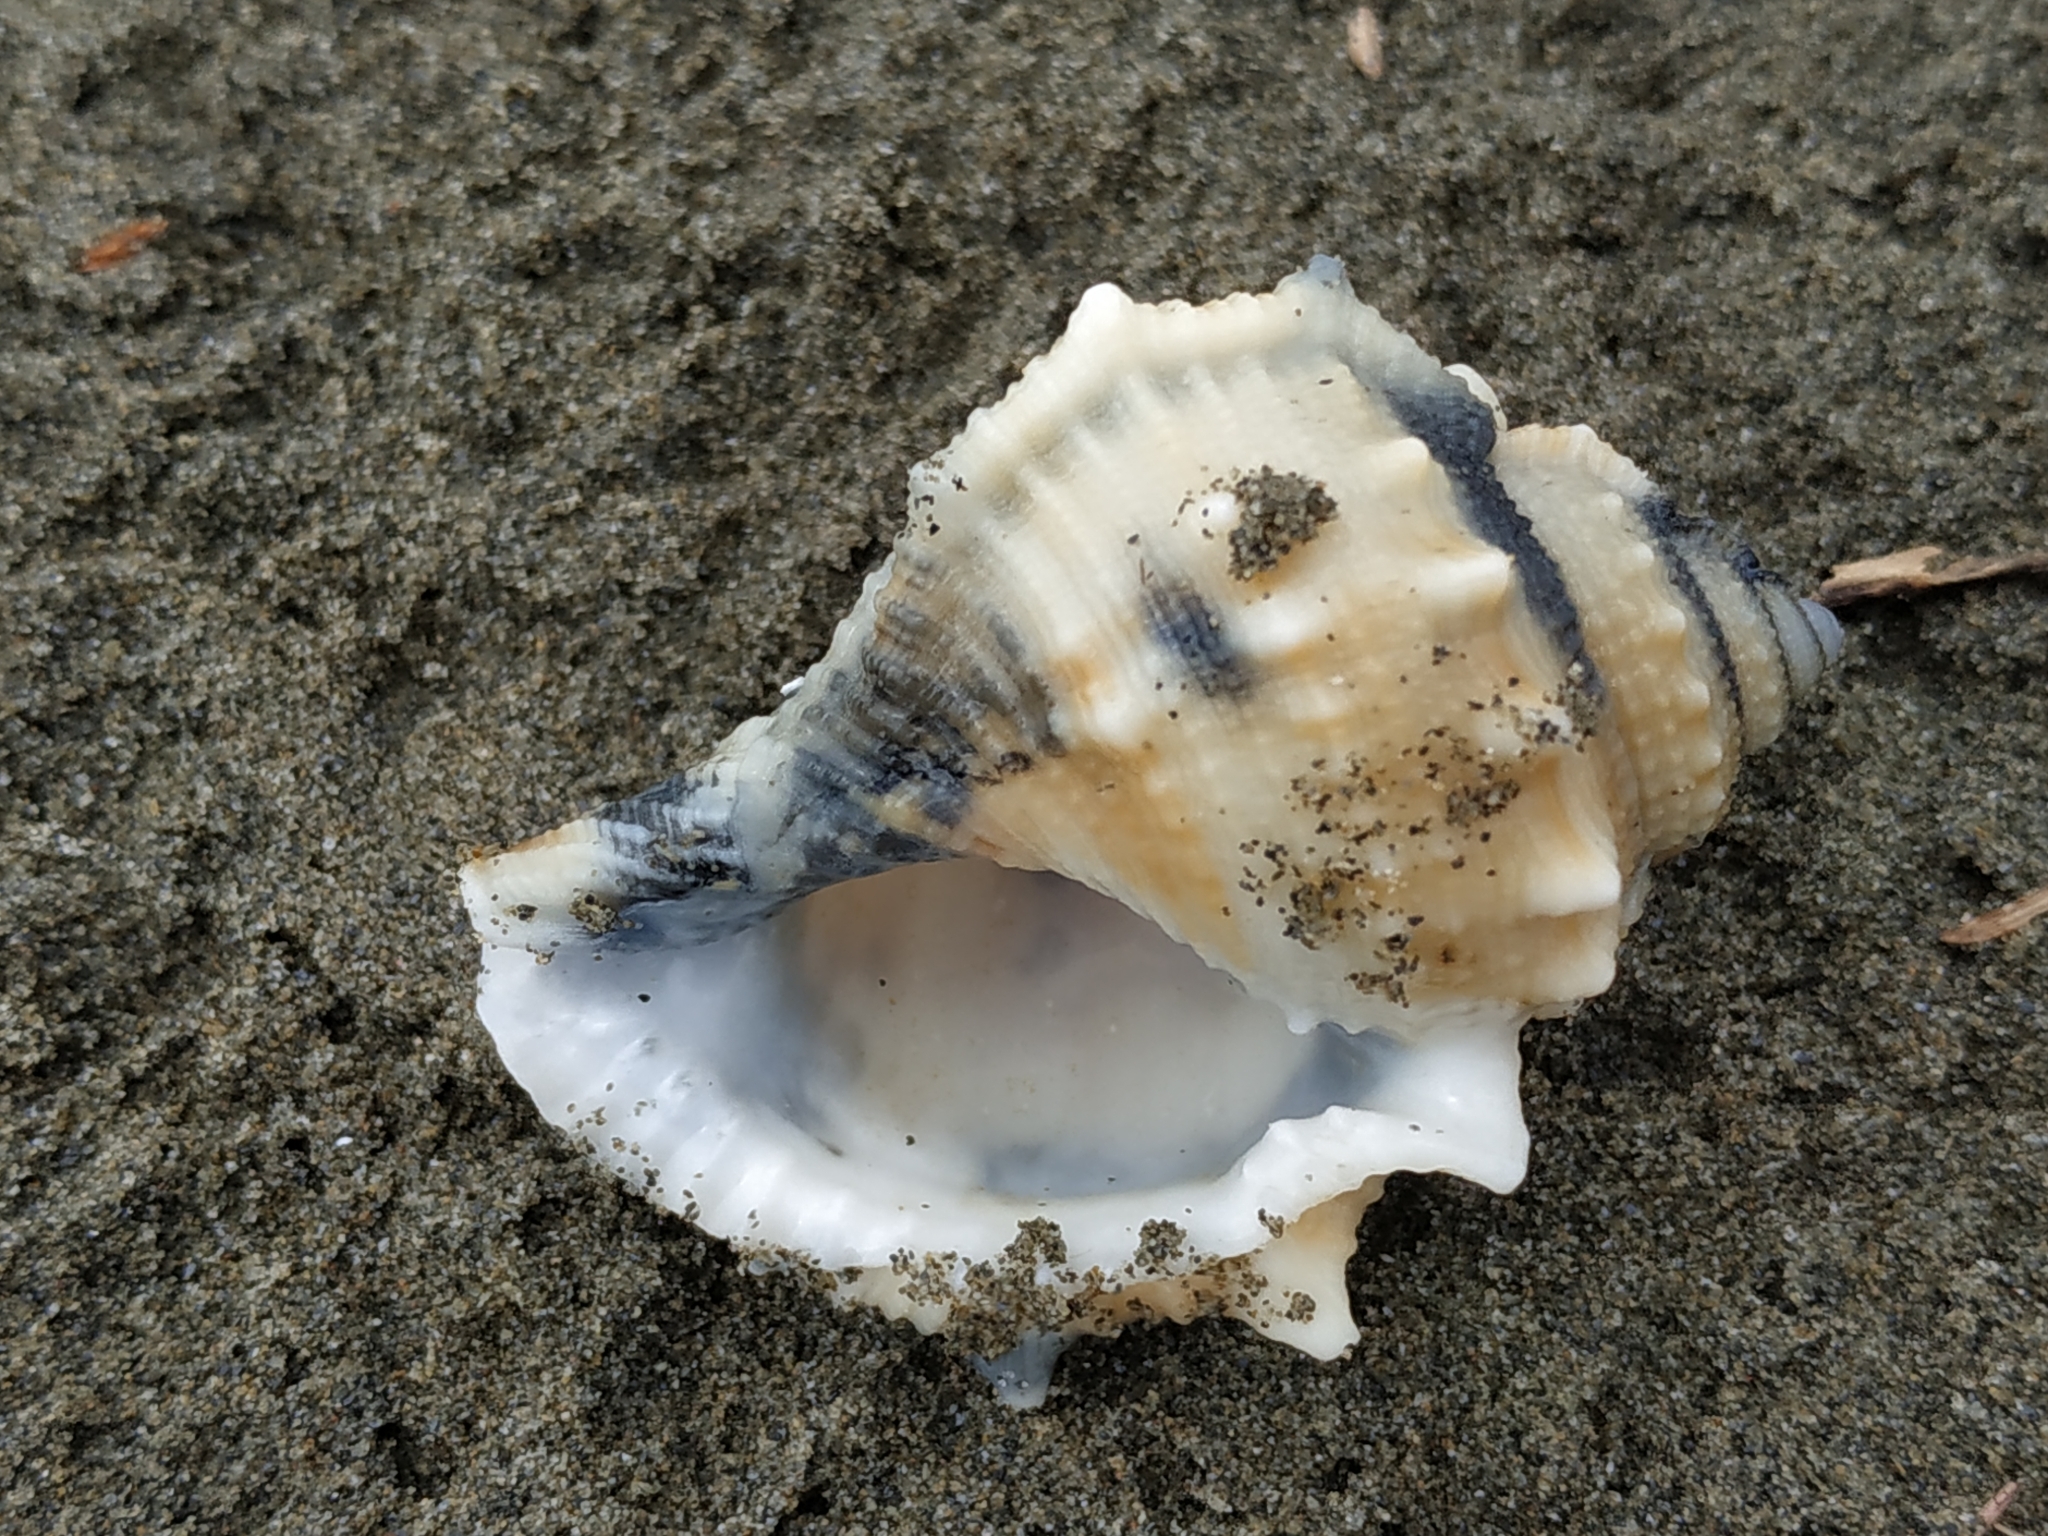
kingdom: Animalia
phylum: Mollusca
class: Gastropoda
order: Littorinimorpha
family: Bursidae
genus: Bufonaria
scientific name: Bufonaria rana
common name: Common frogsnail
